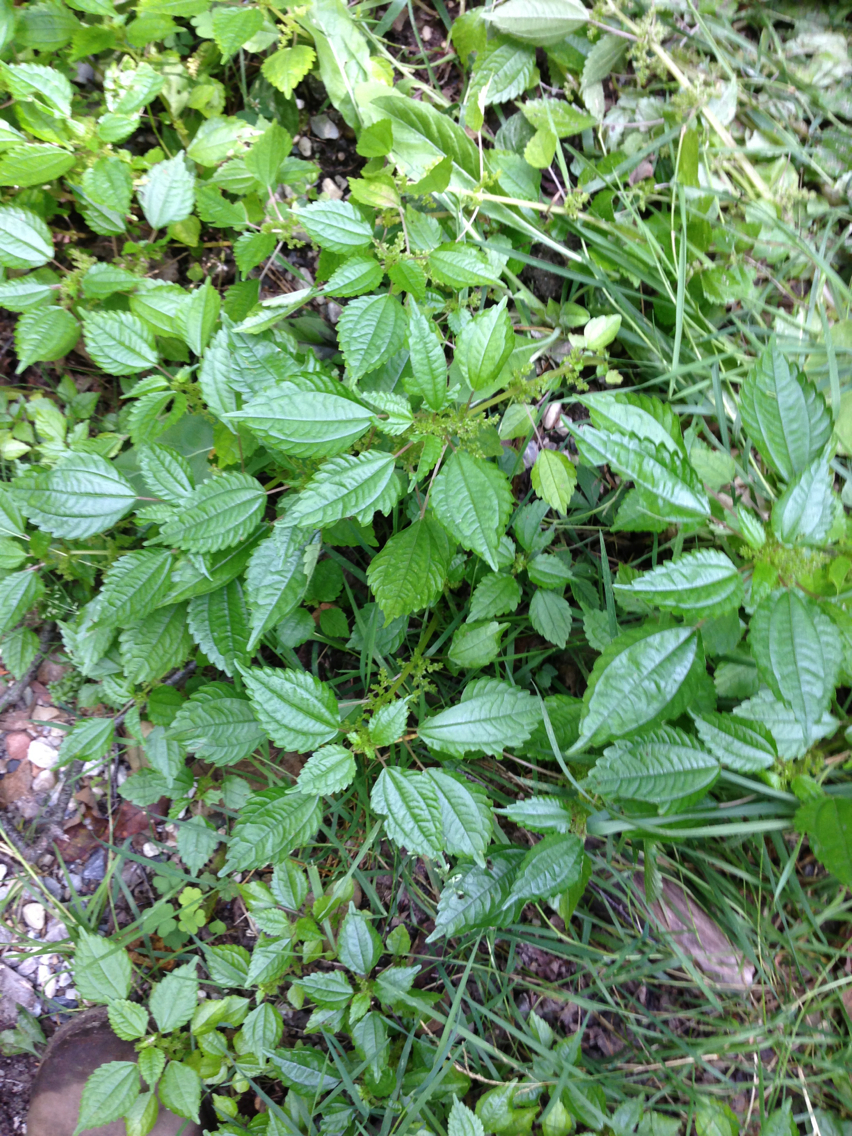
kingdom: Plantae
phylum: Tracheophyta
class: Magnoliopsida
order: Rosales
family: Urticaceae
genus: Pilea
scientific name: Pilea pumila
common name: Clearweed
